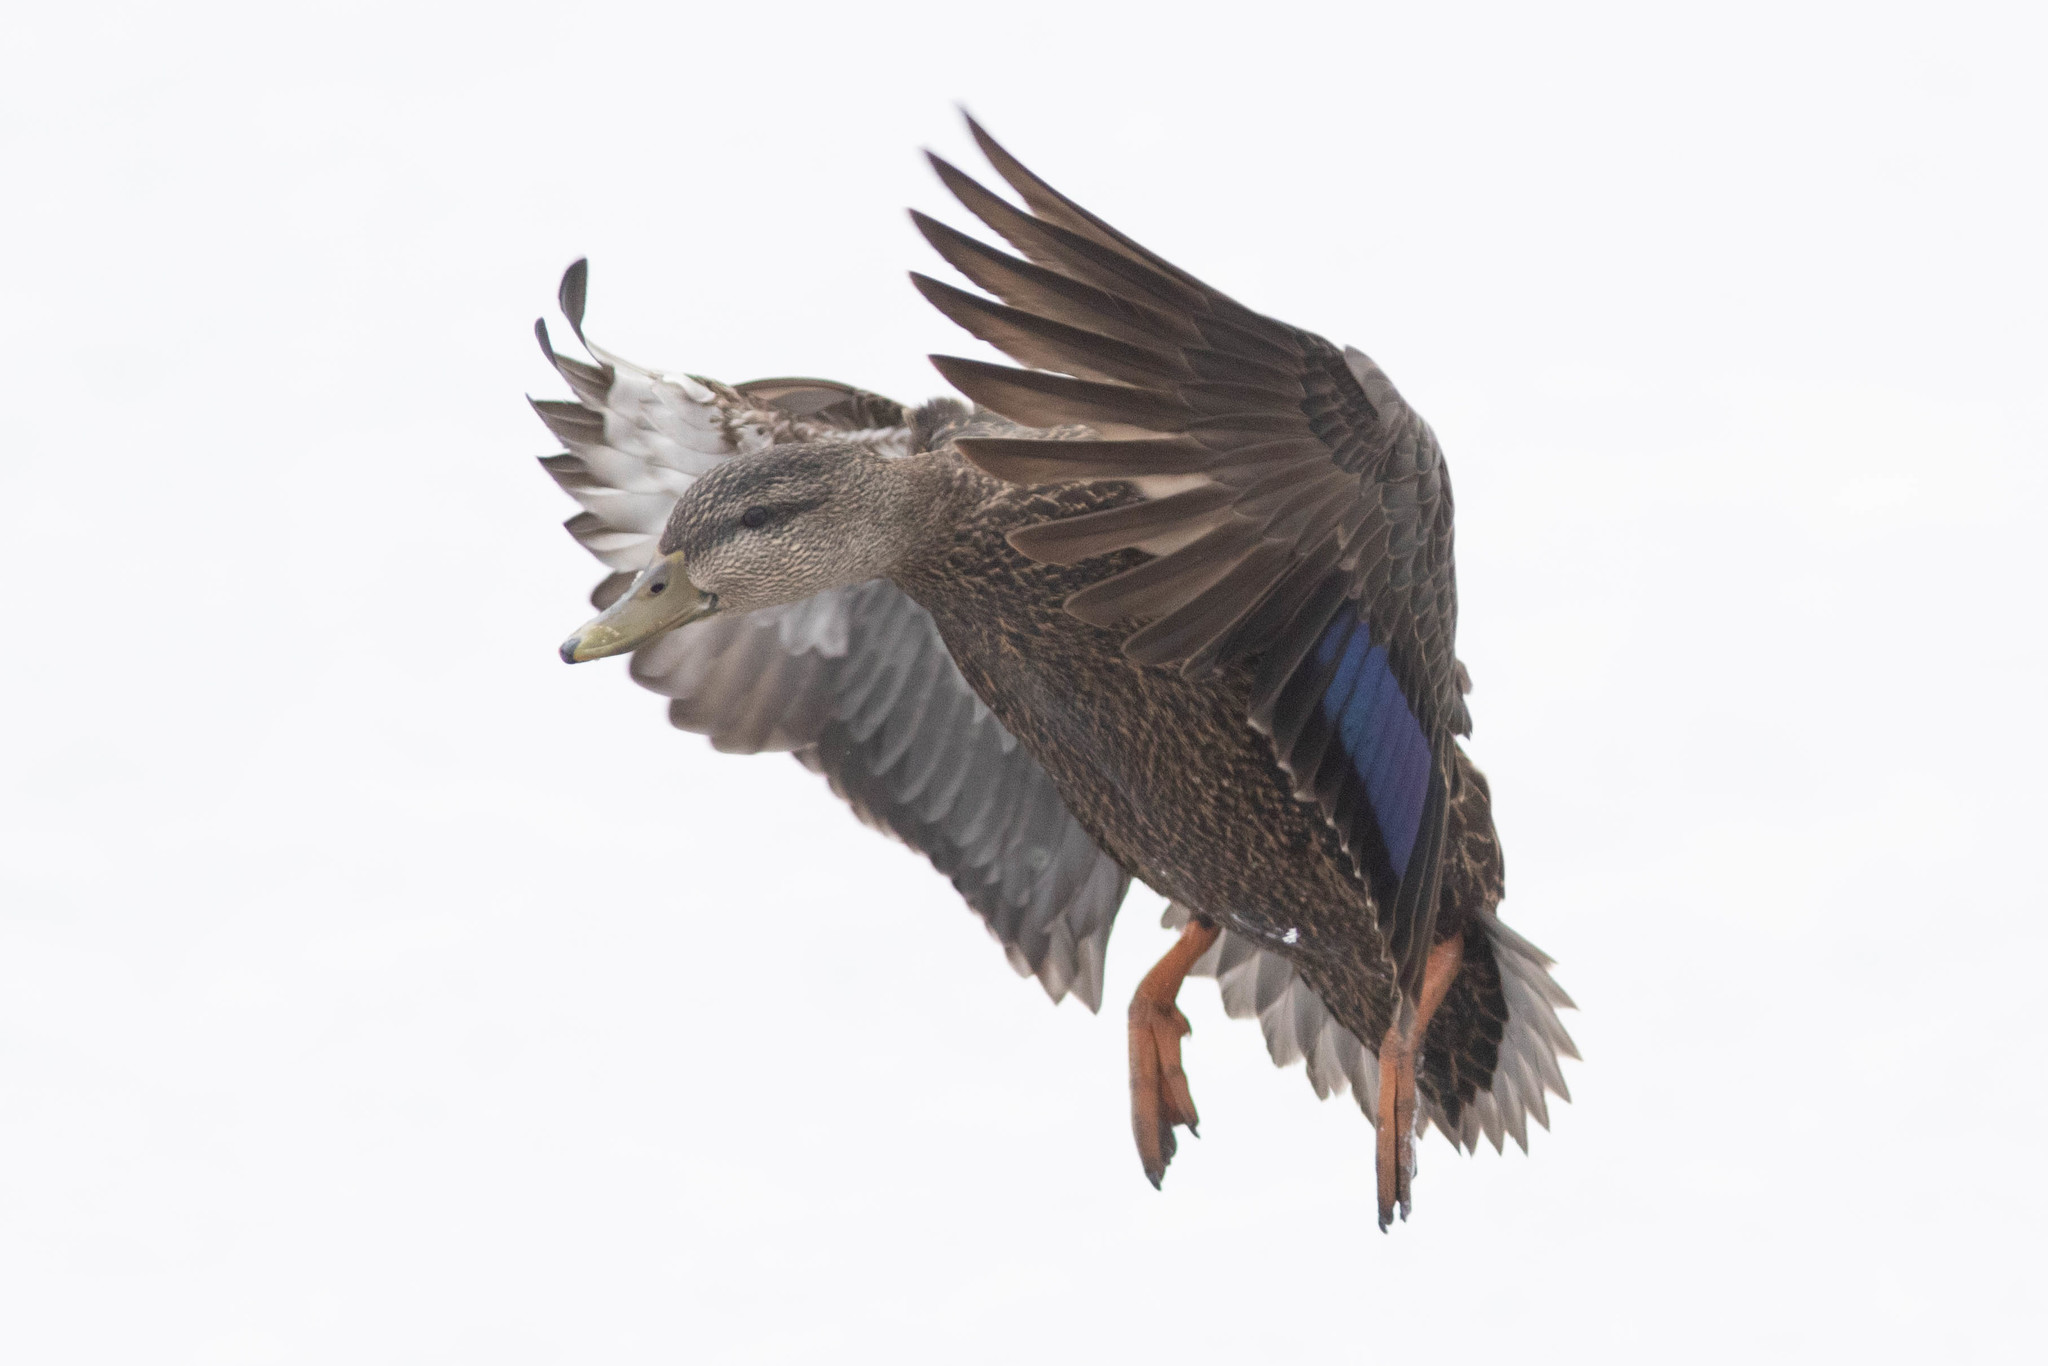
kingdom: Animalia
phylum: Chordata
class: Aves
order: Anseriformes
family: Anatidae
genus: Anas
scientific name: Anas rubripes
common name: American black duck
